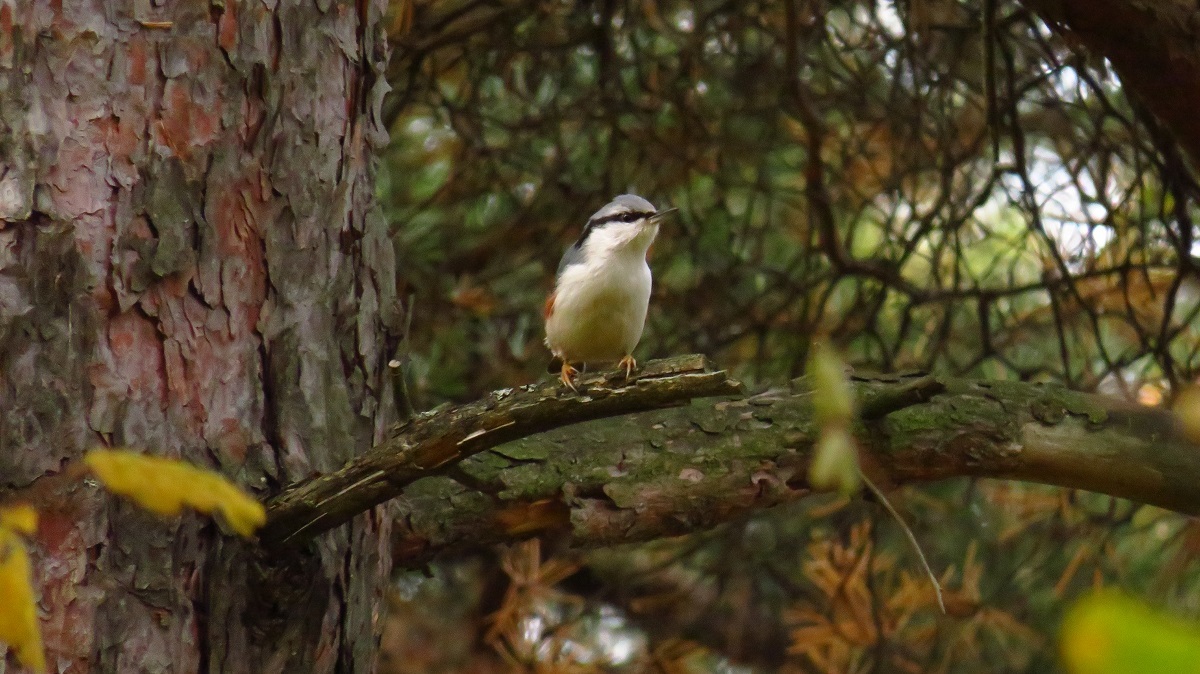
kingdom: Animalia
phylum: Chordata
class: Aves
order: Passeriformes
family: Sittidae
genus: Sitta
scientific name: Sitta europaea
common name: Eurasian nuthatch
